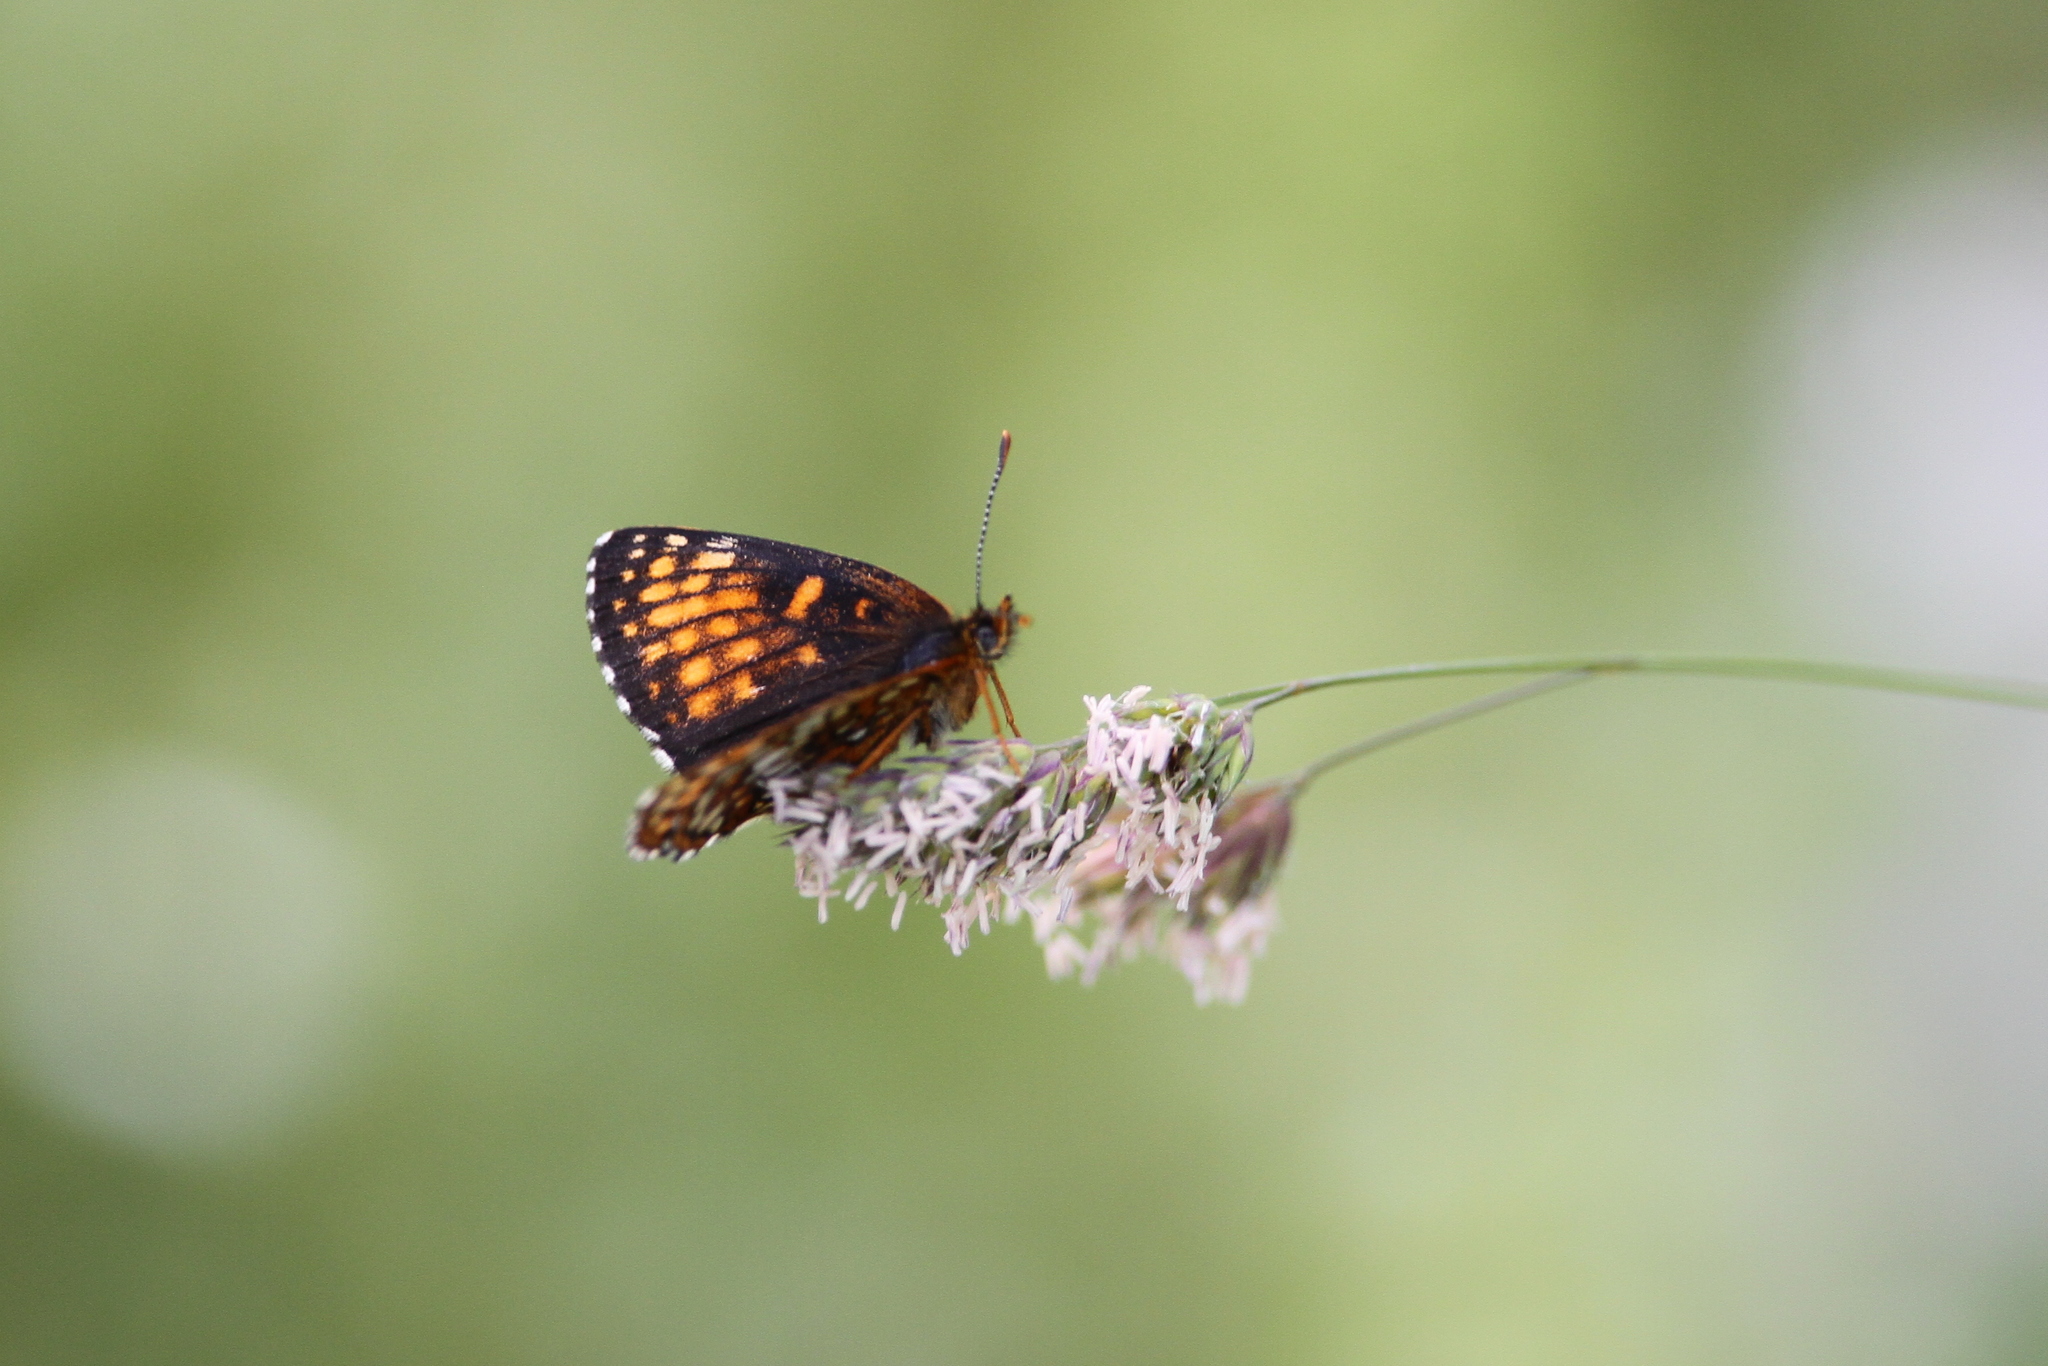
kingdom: Animalia
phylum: Arthropoda
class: Insecta
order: Lepidoptera
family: Nymphalidae
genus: Melitaea
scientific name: Melitaea diamina
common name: False heath fritillary
